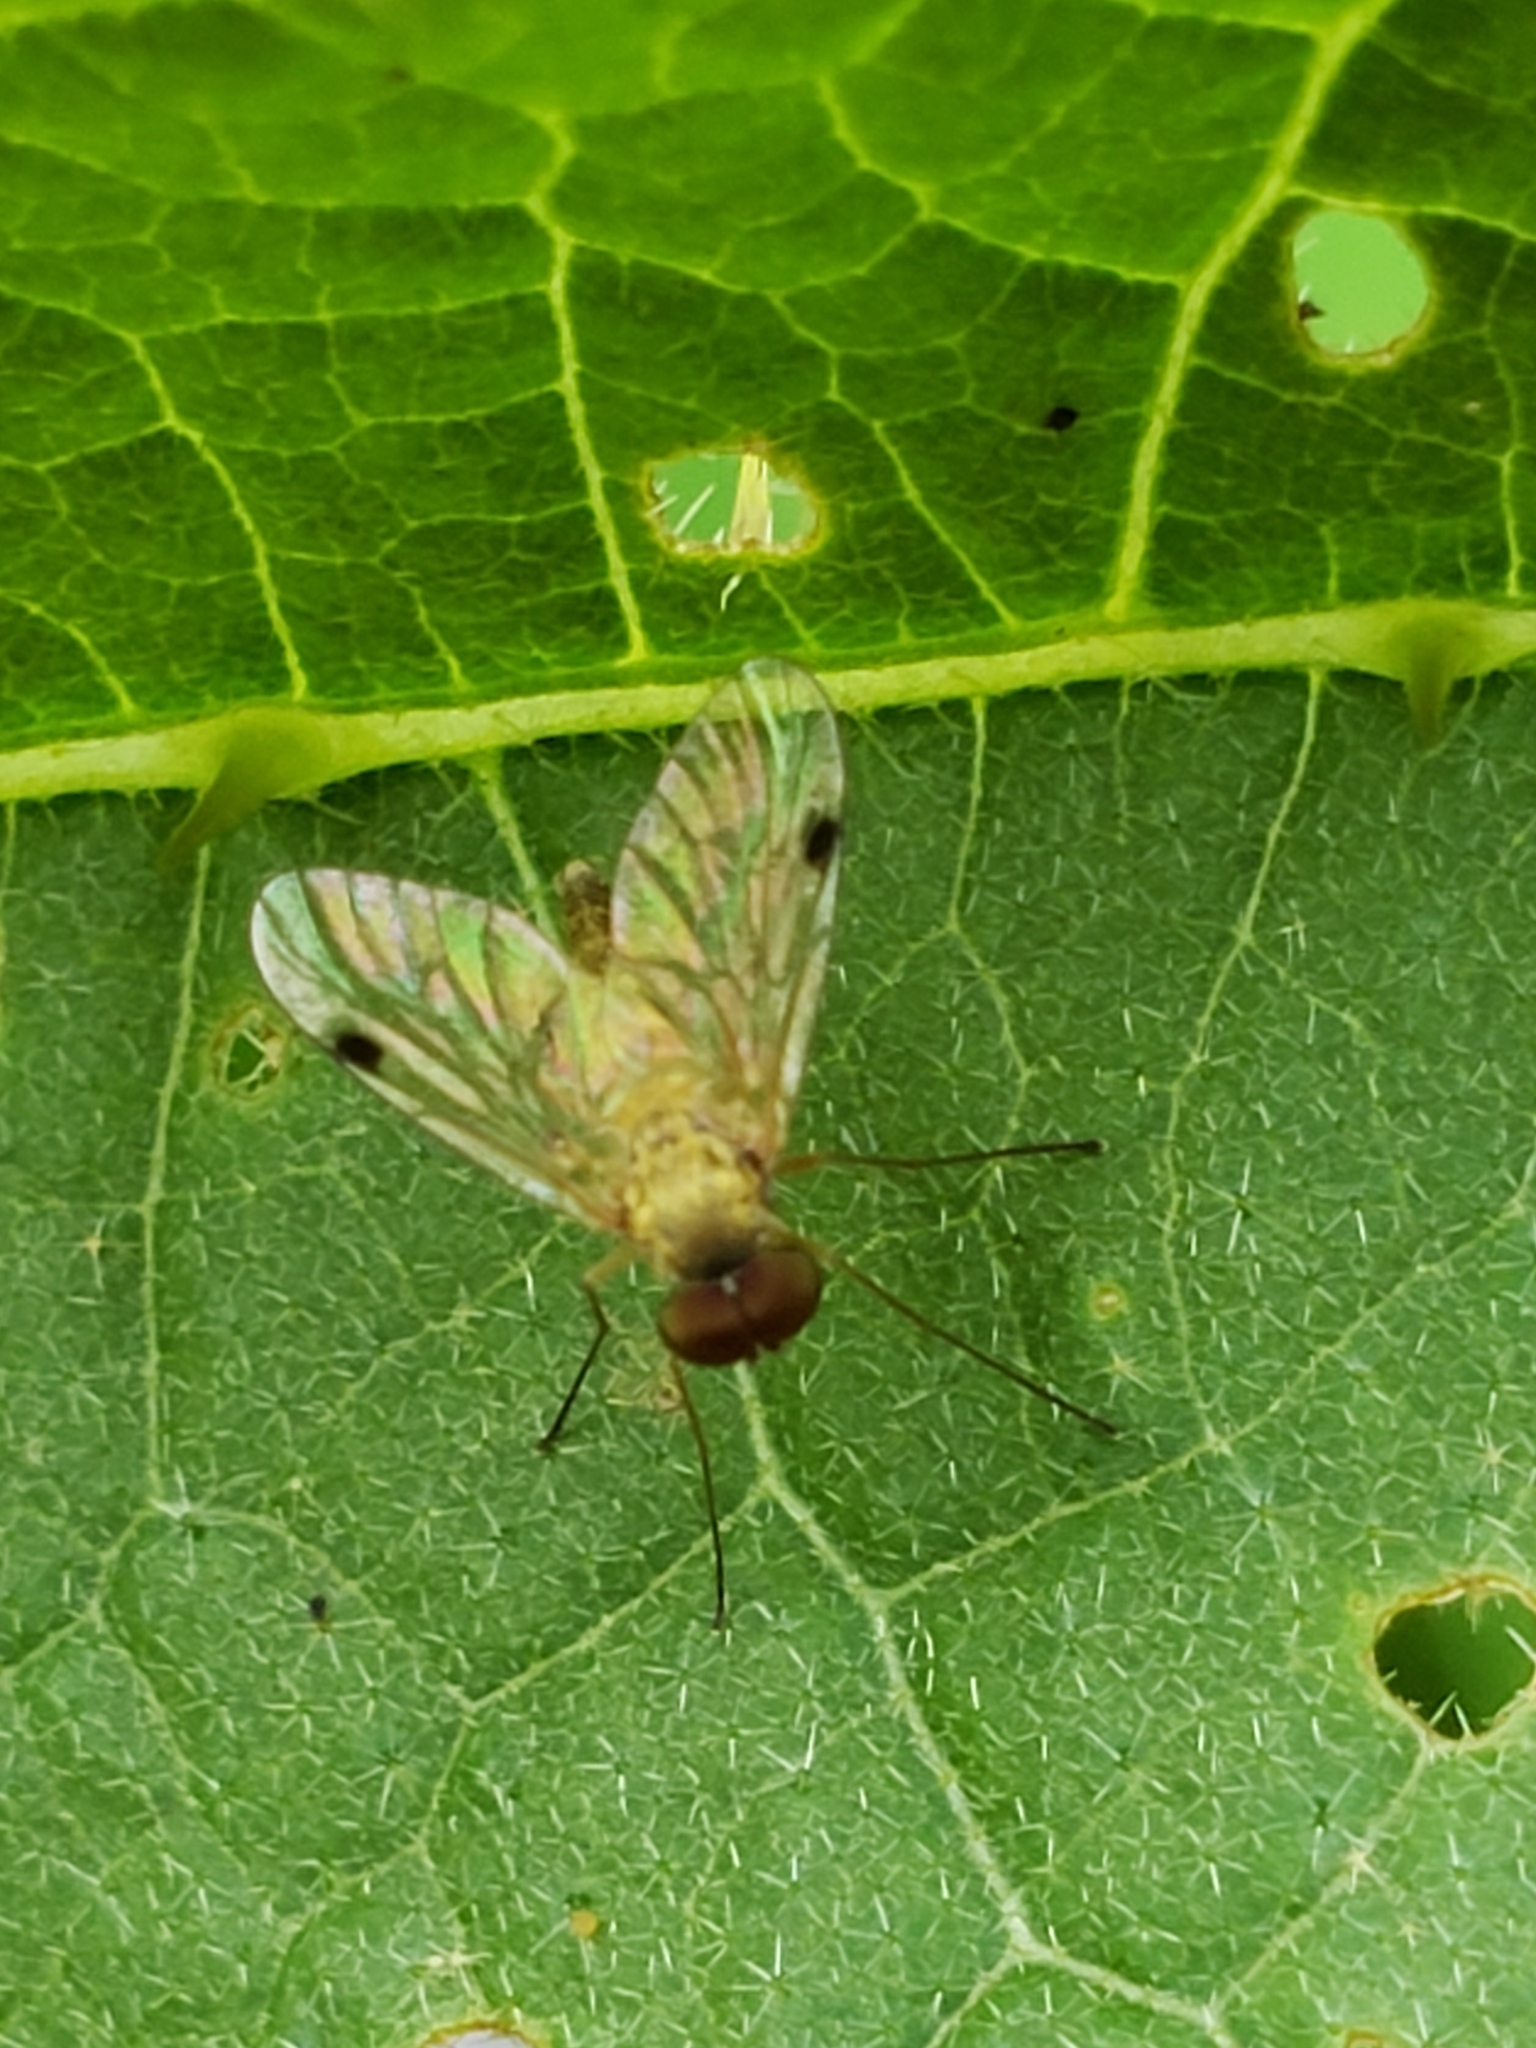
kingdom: Animalia
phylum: Arthropoda
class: Insecta
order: Diptera
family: Rhagionidae
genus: Chrysopilus
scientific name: Chrysopilus modestus
